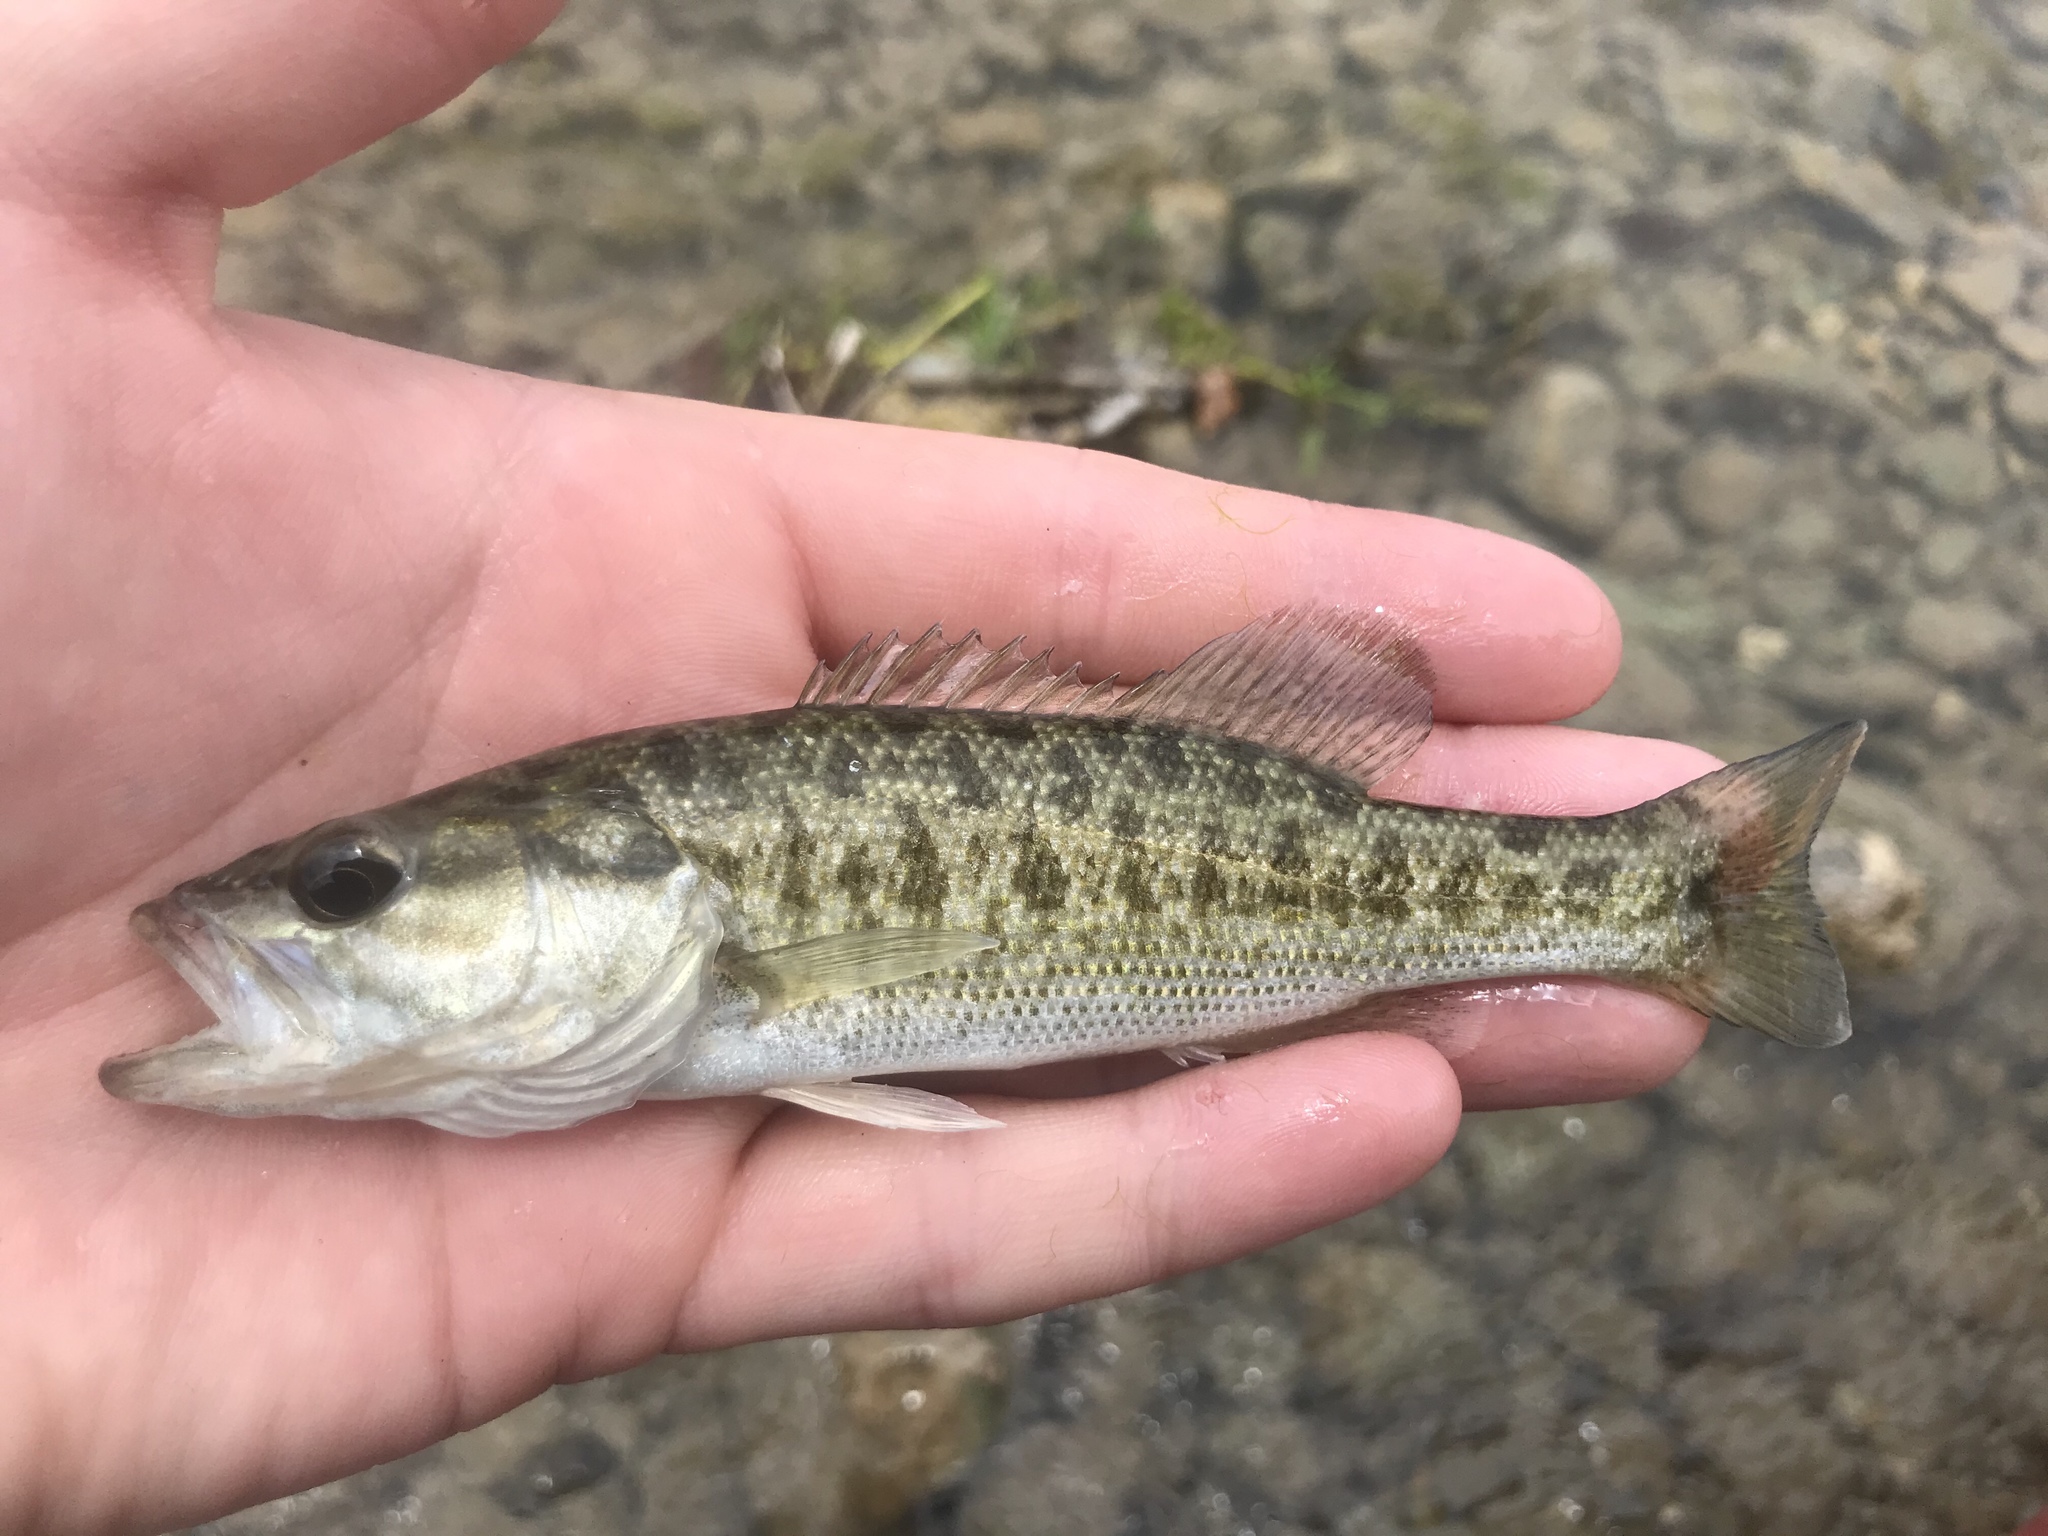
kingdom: Animalia
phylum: Chordata
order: Perciformes
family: Centrarchidae
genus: Micropterus
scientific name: Micropterus treculii
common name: Guadalupe bass
